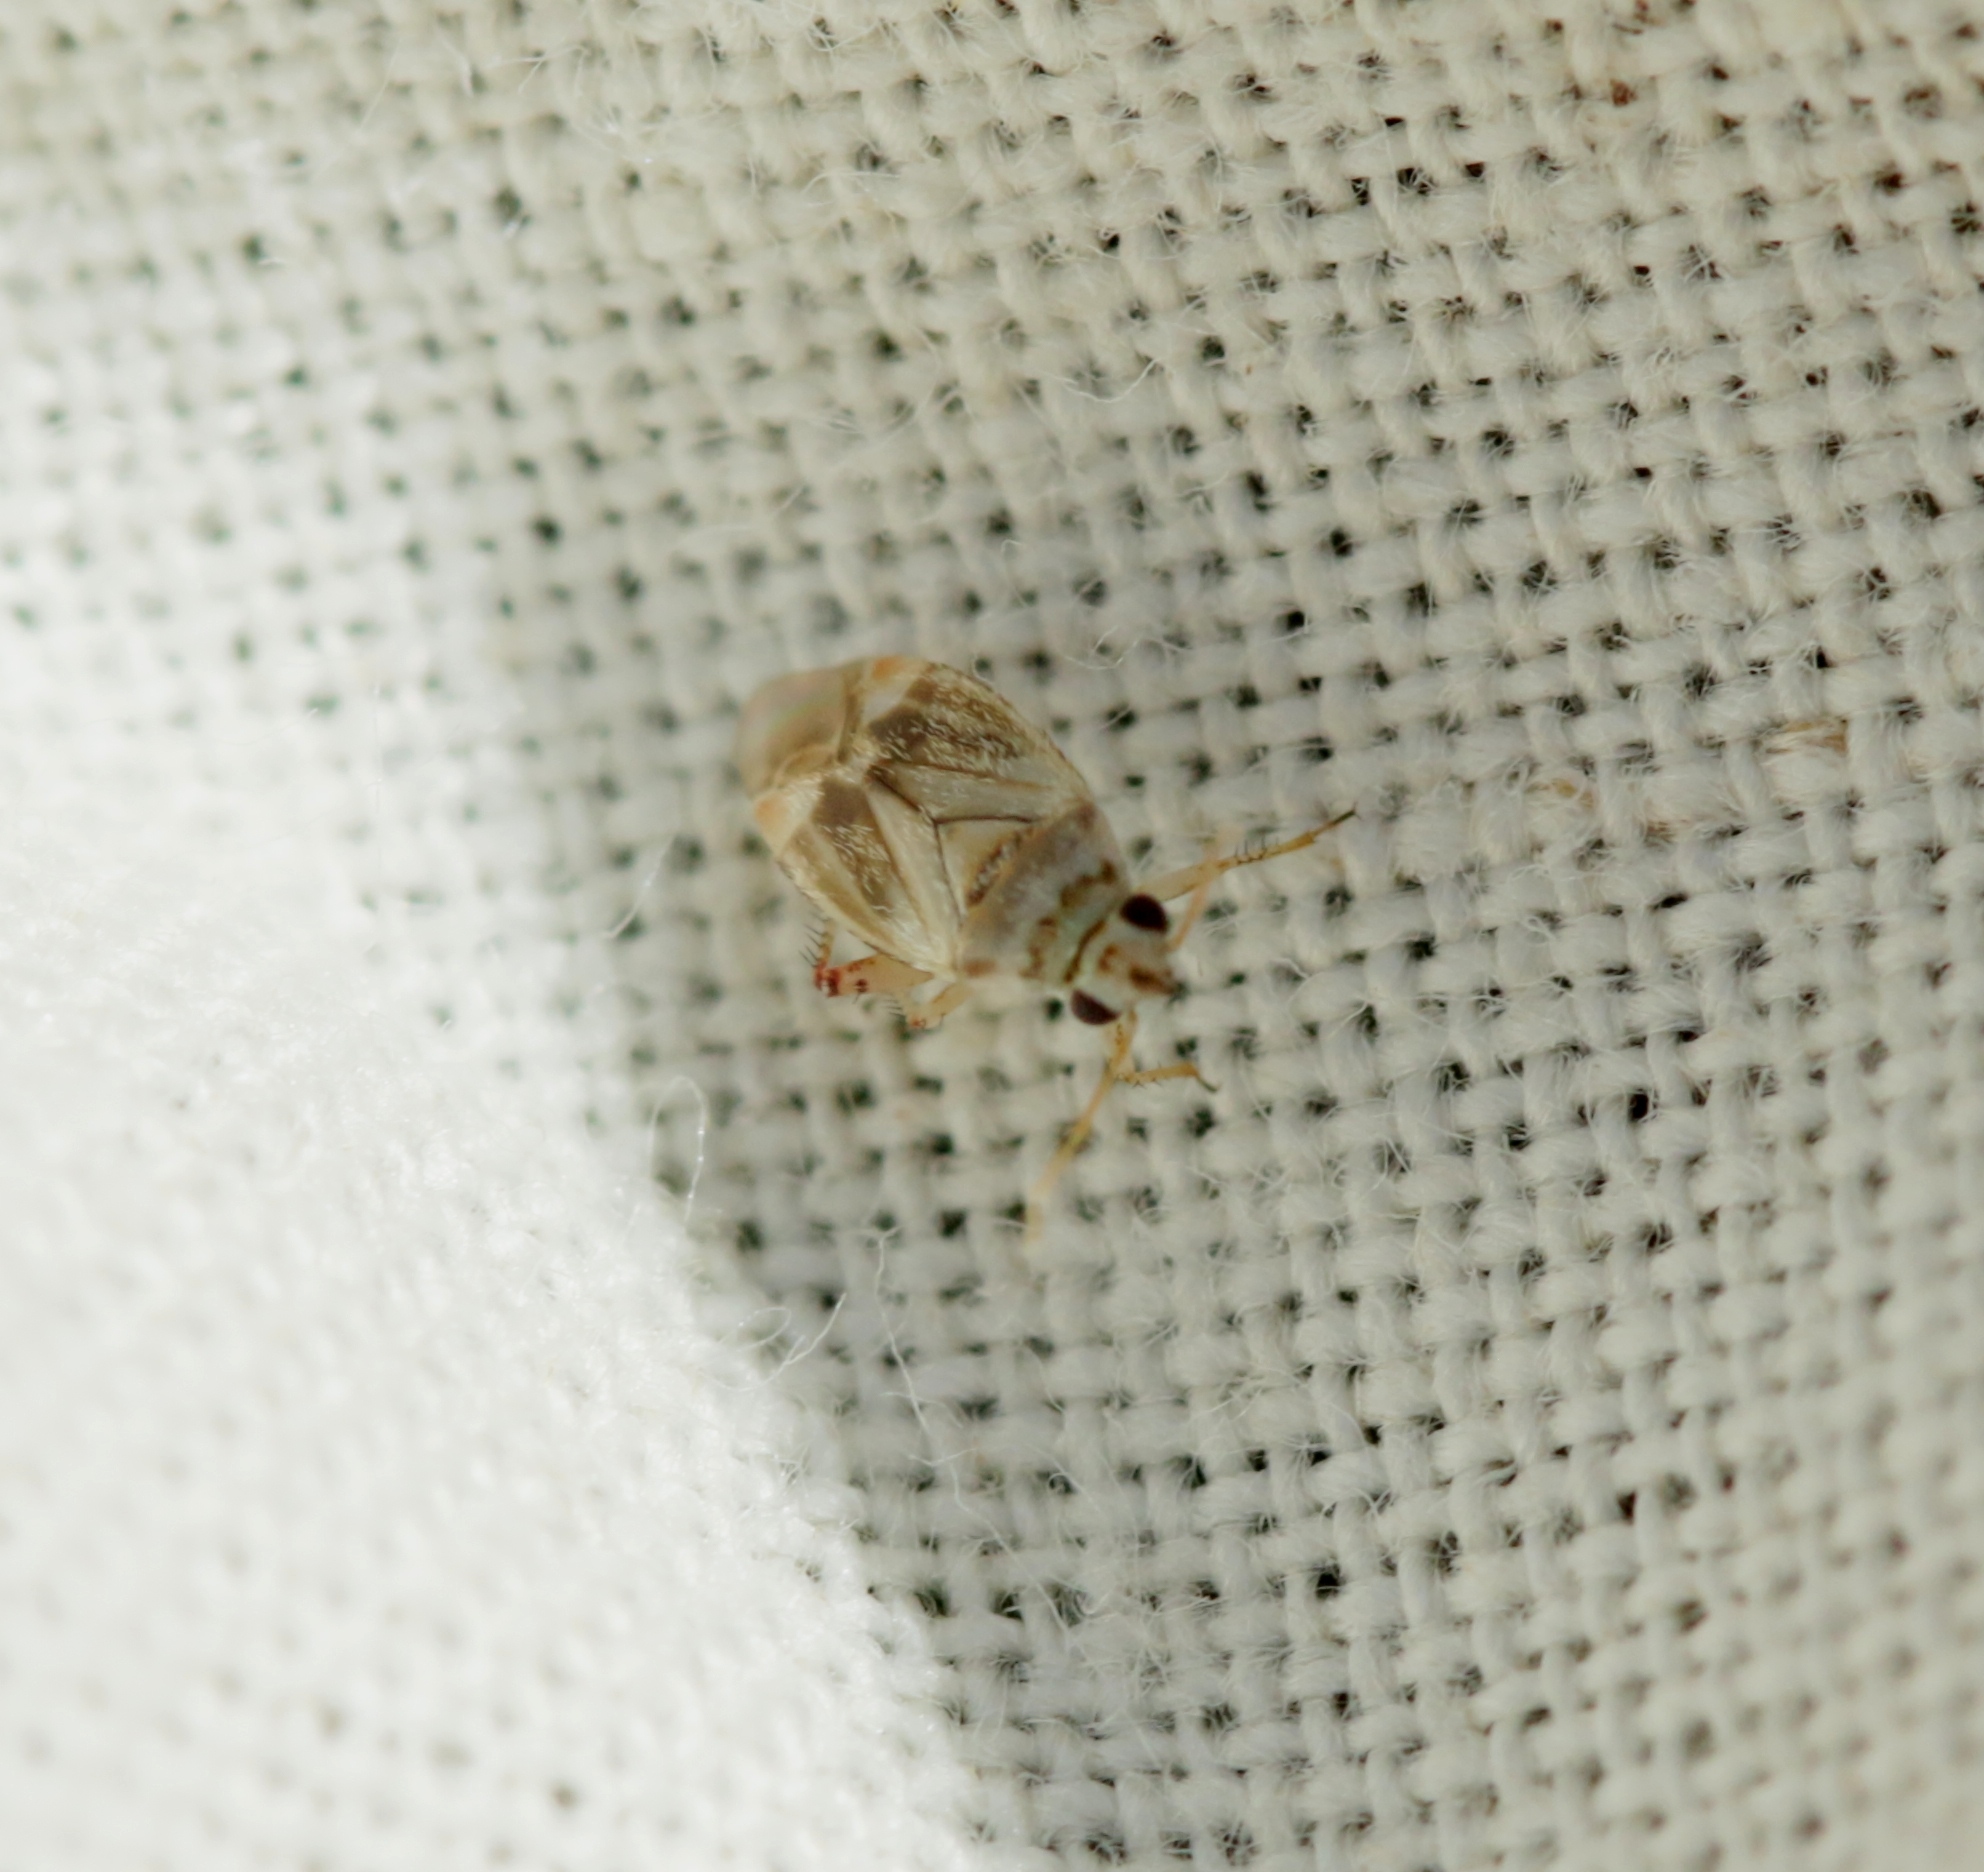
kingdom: Animalia
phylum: Arthropoda
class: Insecta
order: Hemiptera
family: Miridae
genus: Sthenarus
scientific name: Sthenarus rotermundi
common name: Leaf bug
